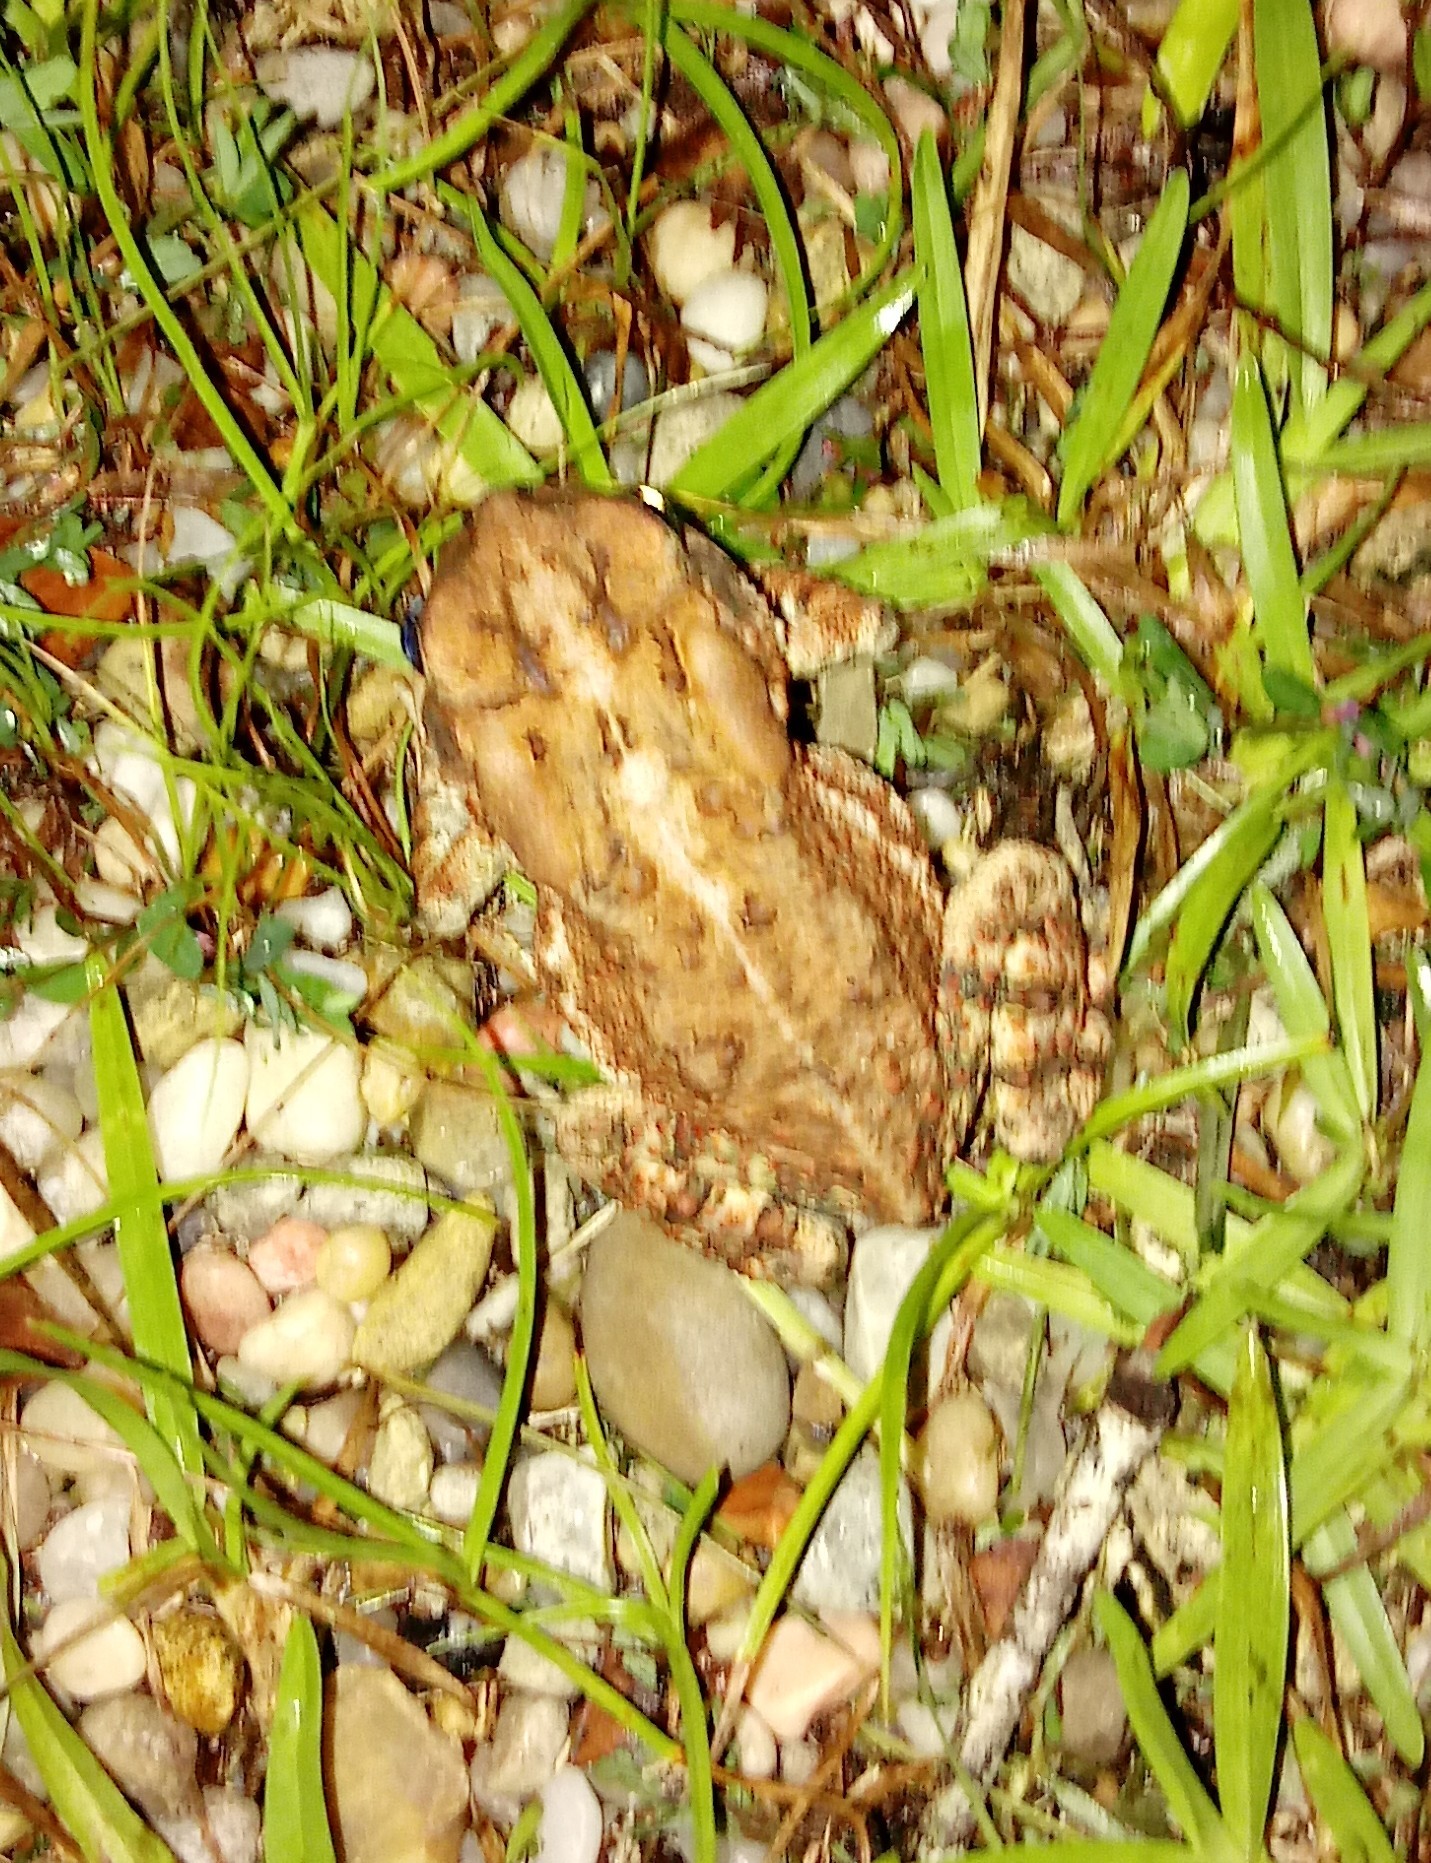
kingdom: Animalia
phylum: Chordata
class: Amphibia
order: Anura
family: Bufonidae
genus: Anaxyrus
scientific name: Anaxyrus terrestris
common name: Southern toad
